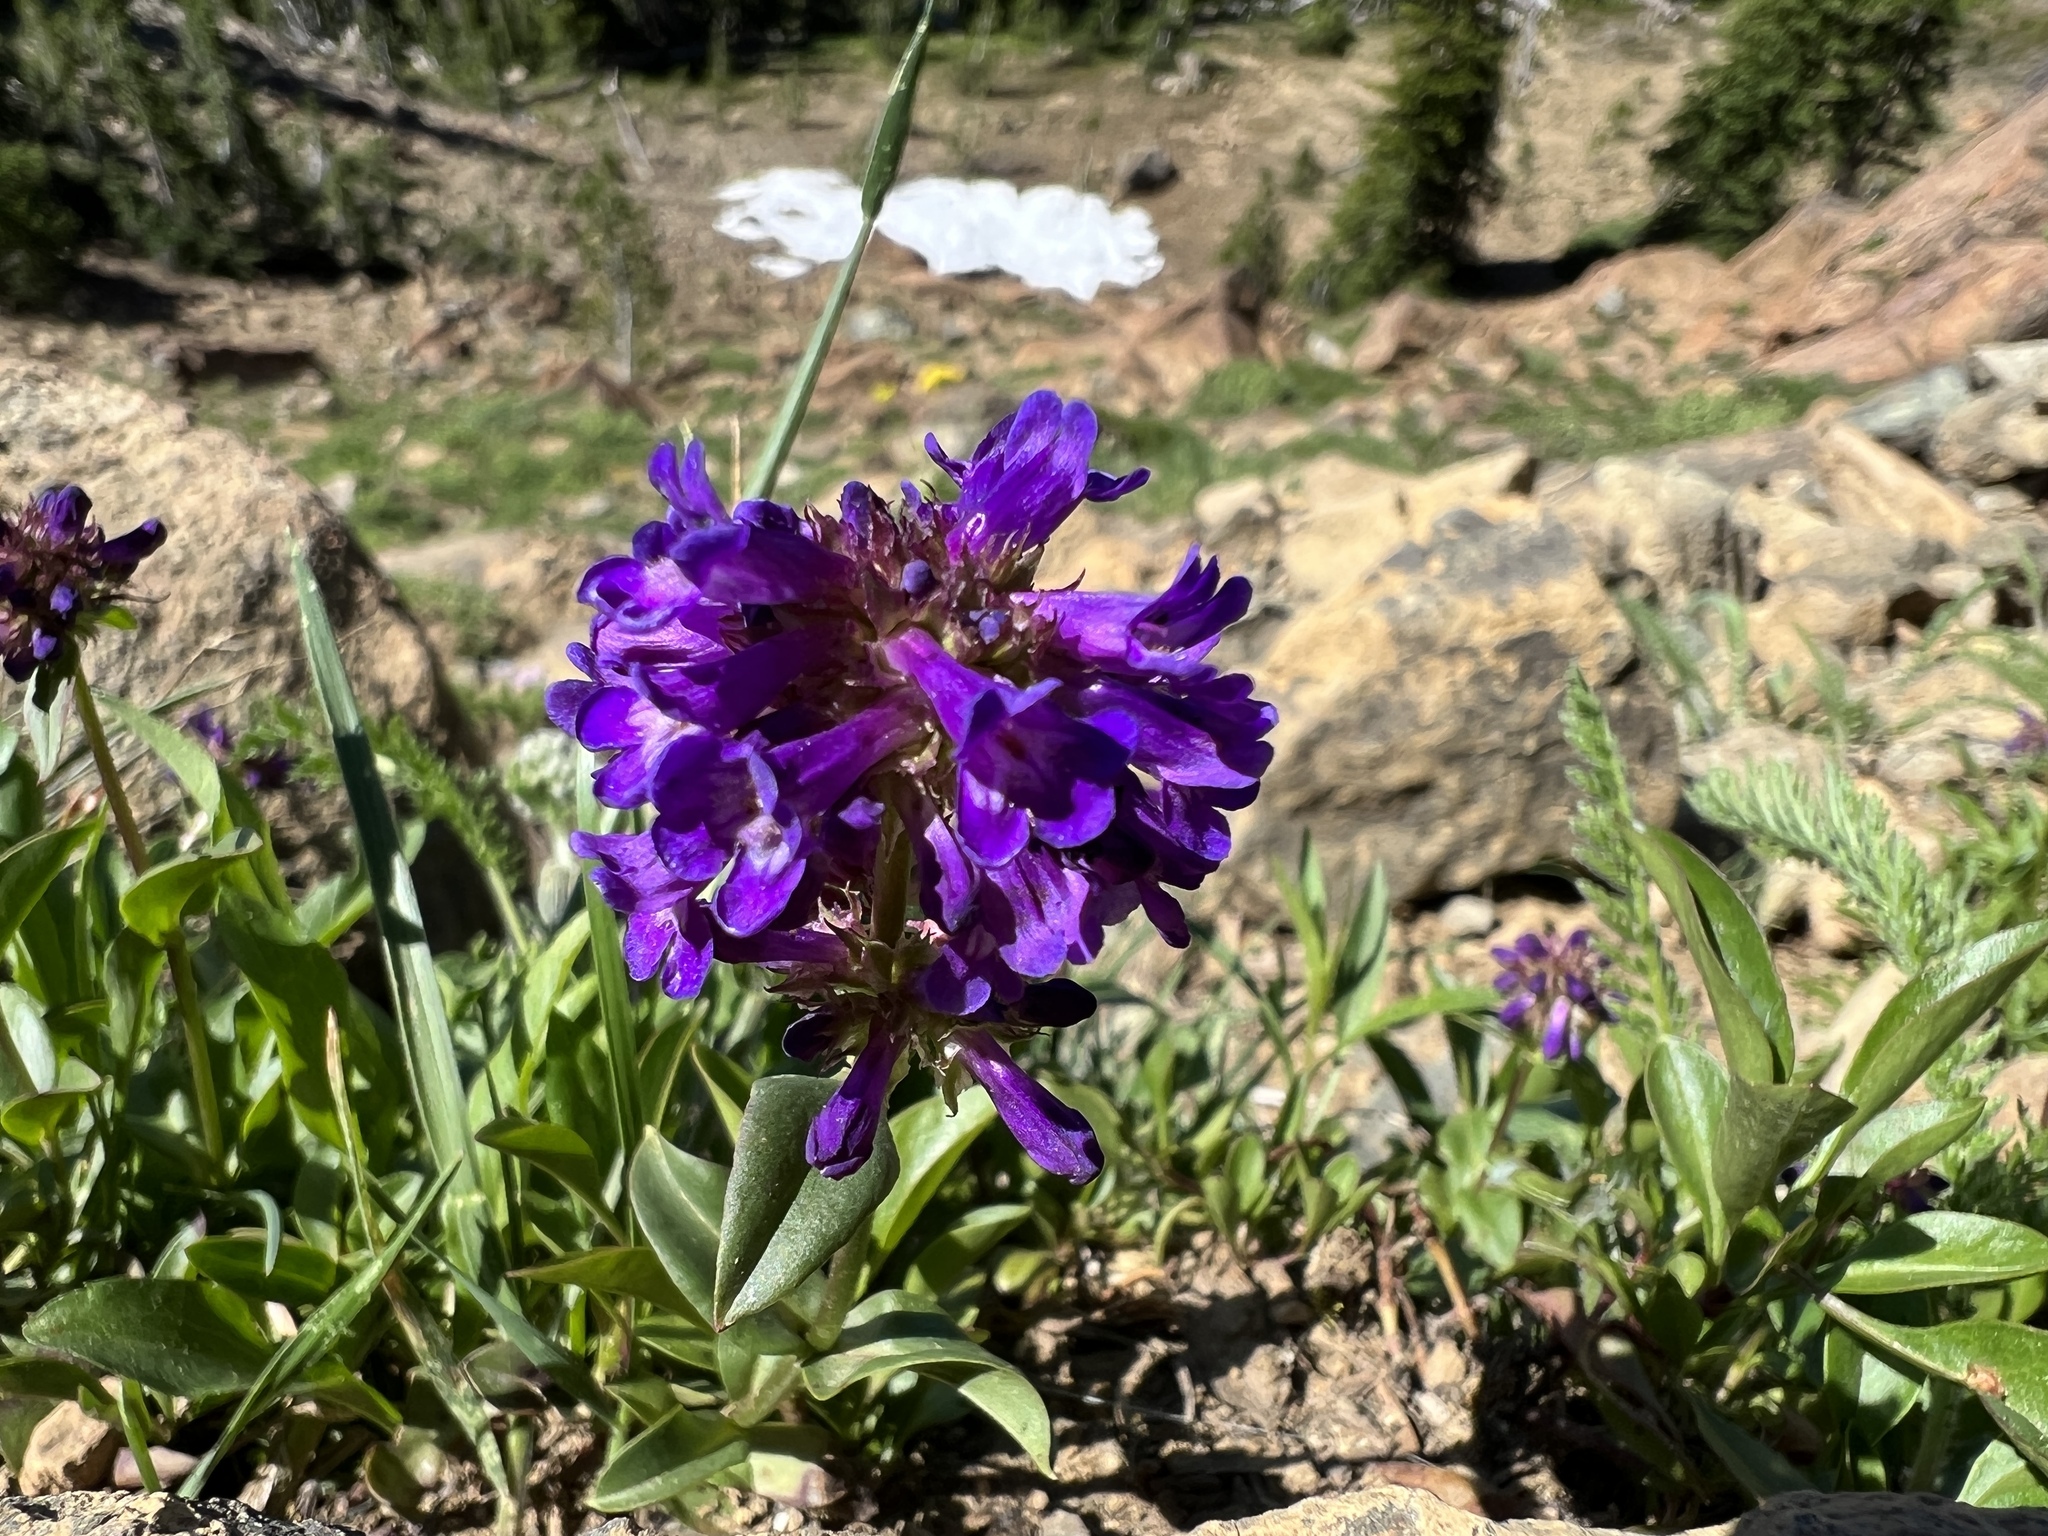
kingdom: Plantae
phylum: Tracheophyta
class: Magnoliopsida
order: Lamiales
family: Plantaginaceae
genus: Penstemon
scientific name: Penstemon procerus
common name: Small-flower penstemon
